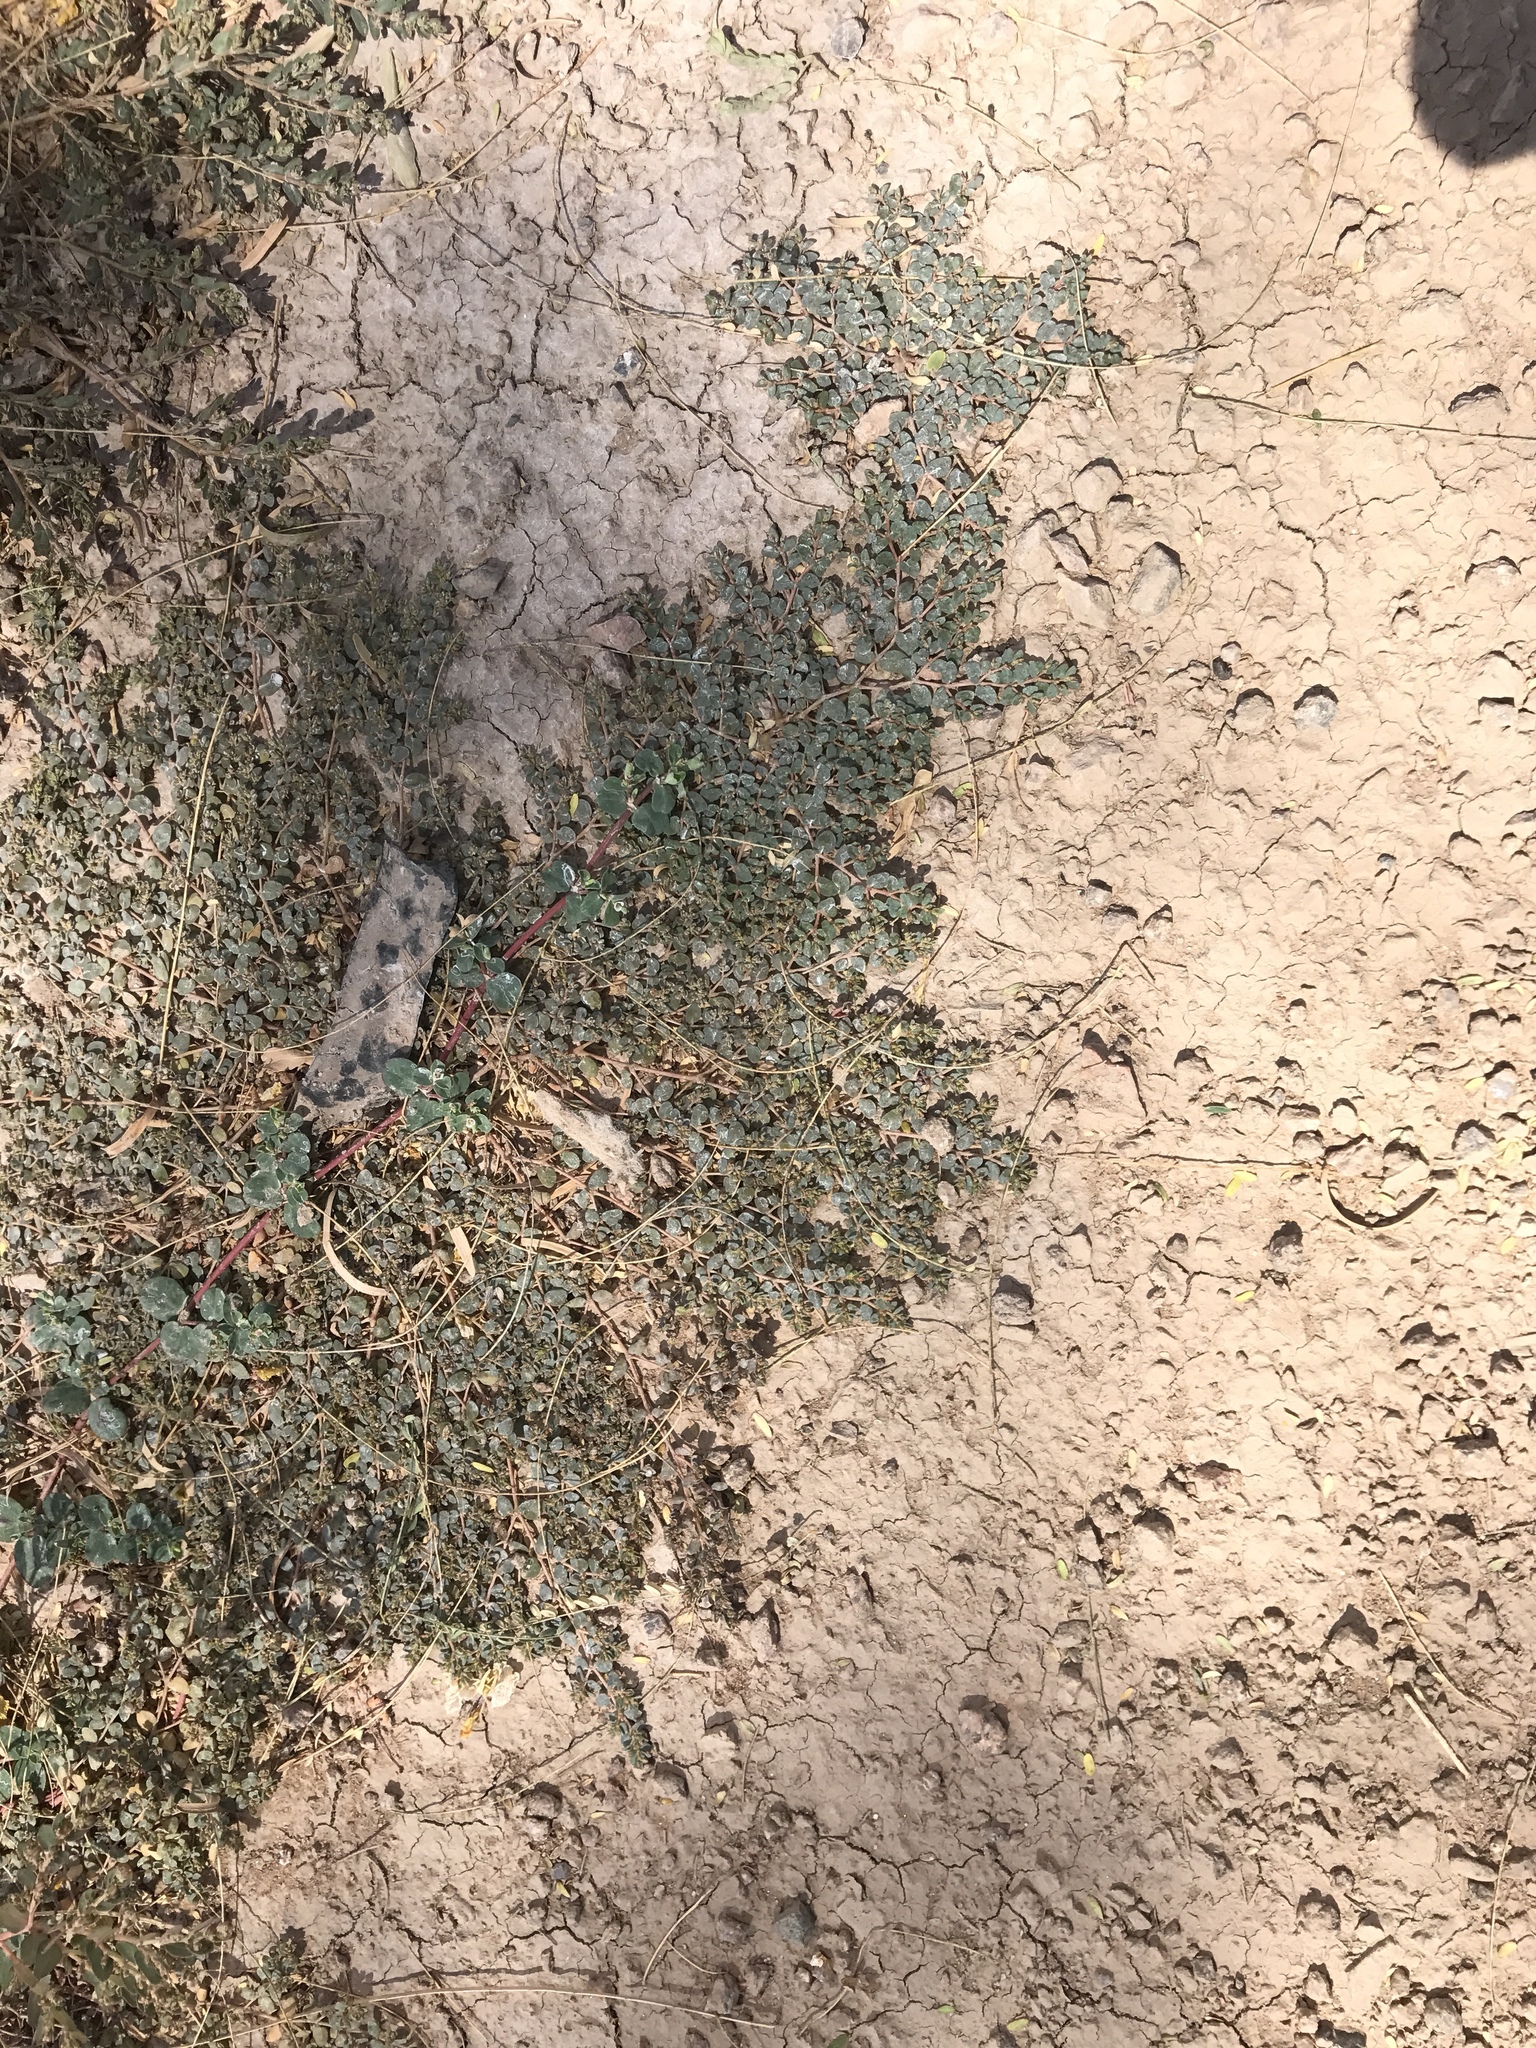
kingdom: Plantae
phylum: Tracheophyta
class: Magnoliopsida
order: Malpighiales
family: Euphorbiaceae
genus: Euphorbia
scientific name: Euphorbia micromera
